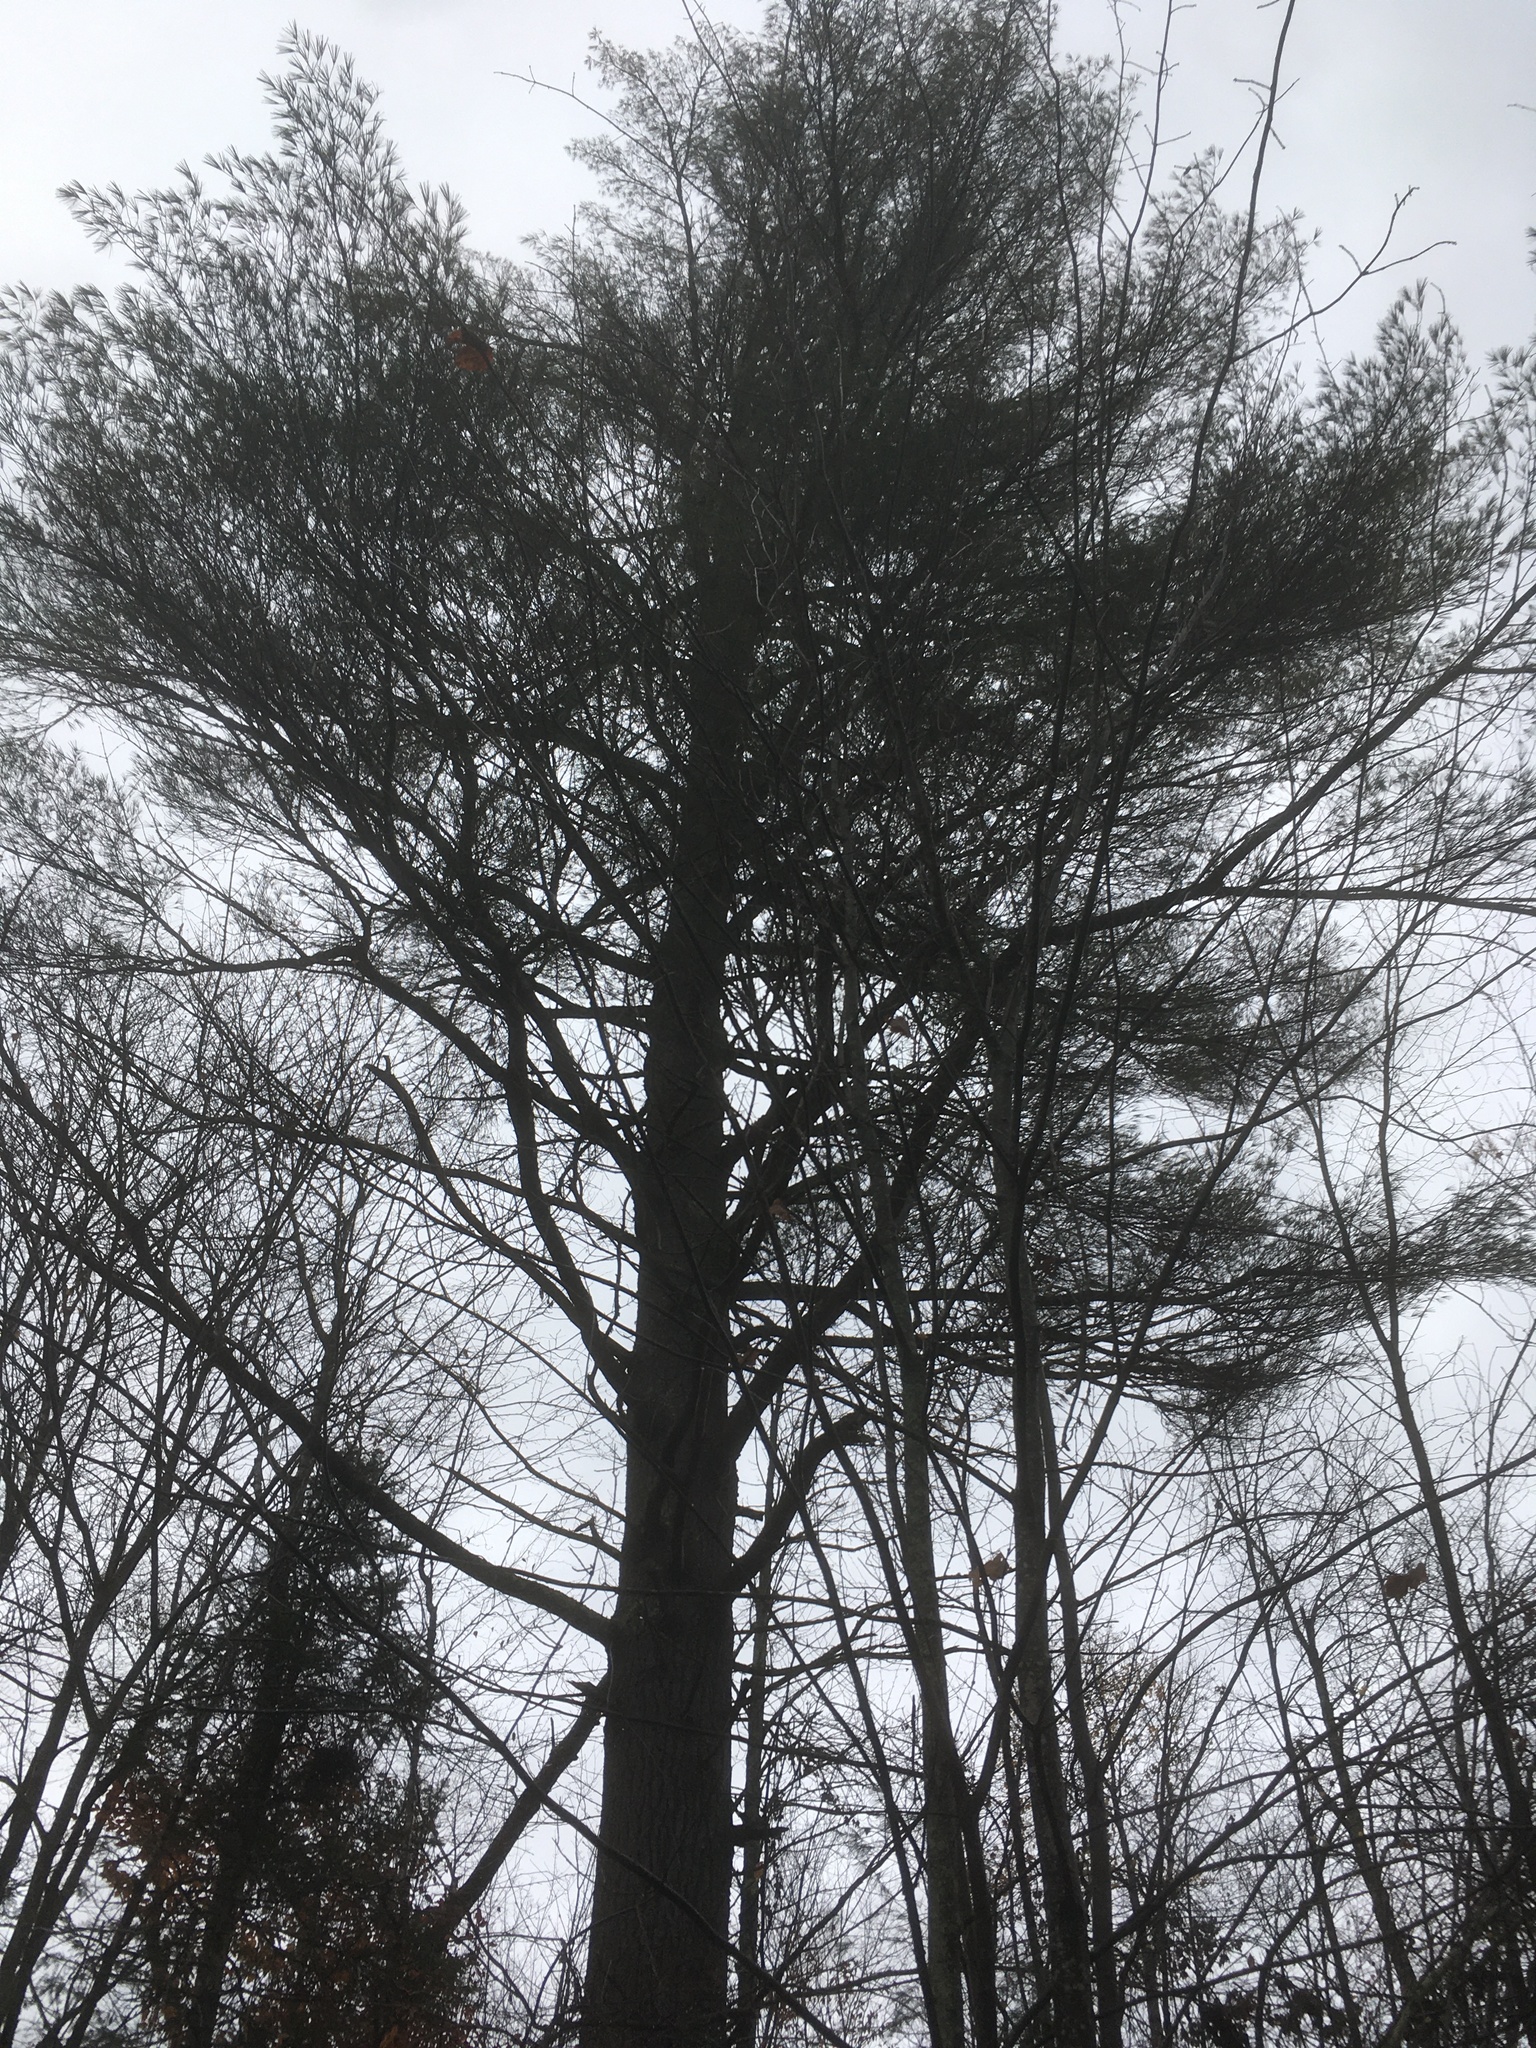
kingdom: Plantae
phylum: Tracheophyta
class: Pinopsida
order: Pinales
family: Pinaceae
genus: Pinus
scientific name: Pinus strobus
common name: Weymouth pine
